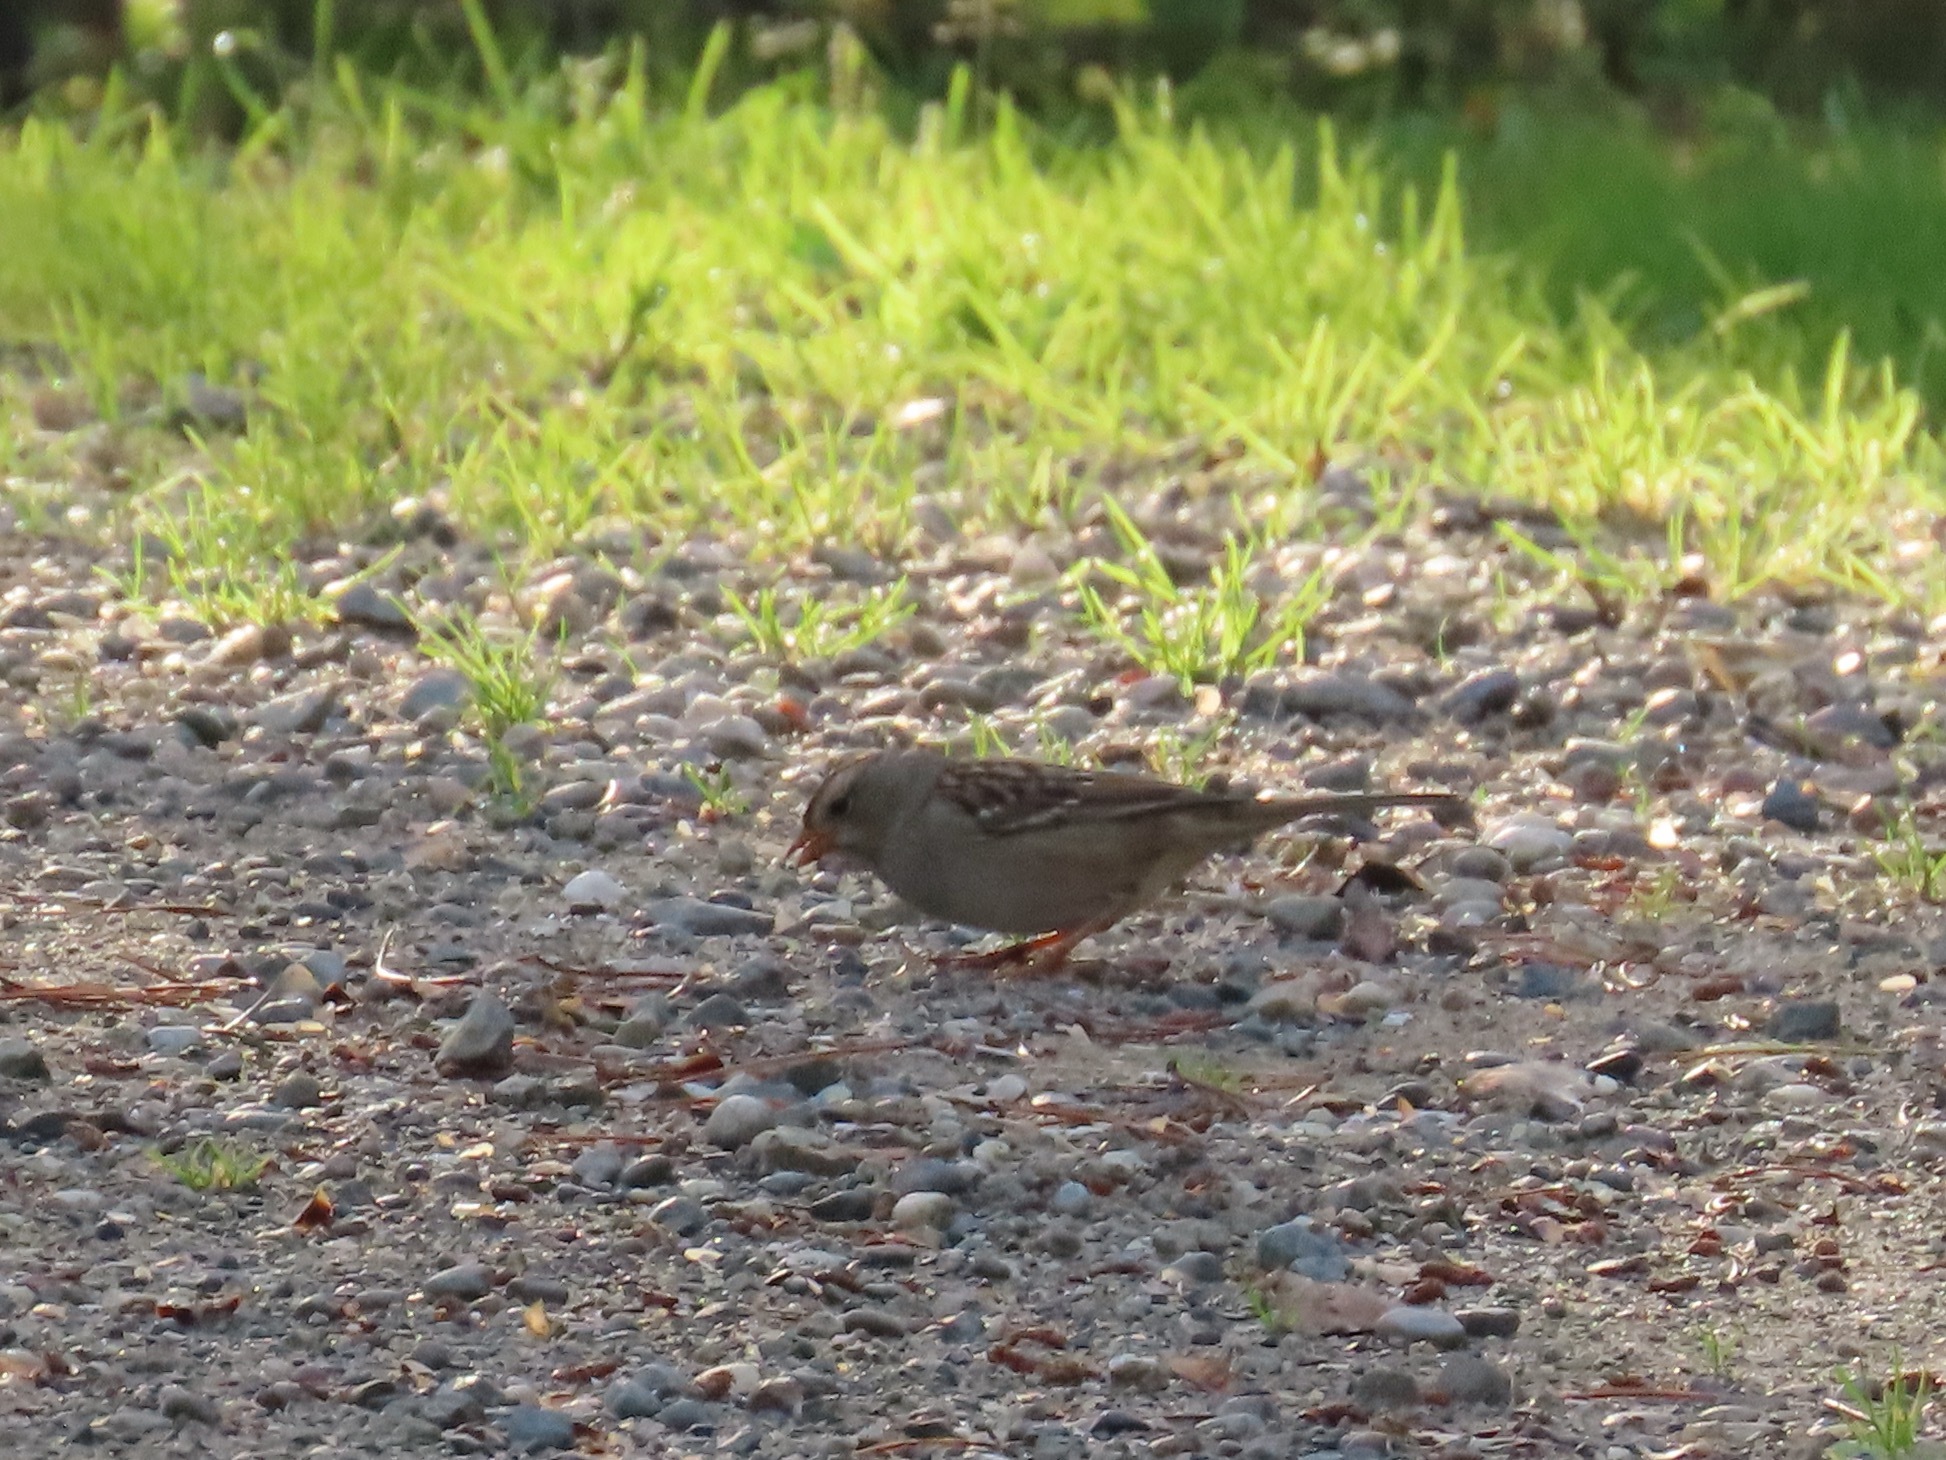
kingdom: Animalia
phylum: Chordata
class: Aves
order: Passeriformes
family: Passerellidae
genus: Zonotrichia
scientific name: Zonotrichia leucophrys
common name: White-crowned sparrow
